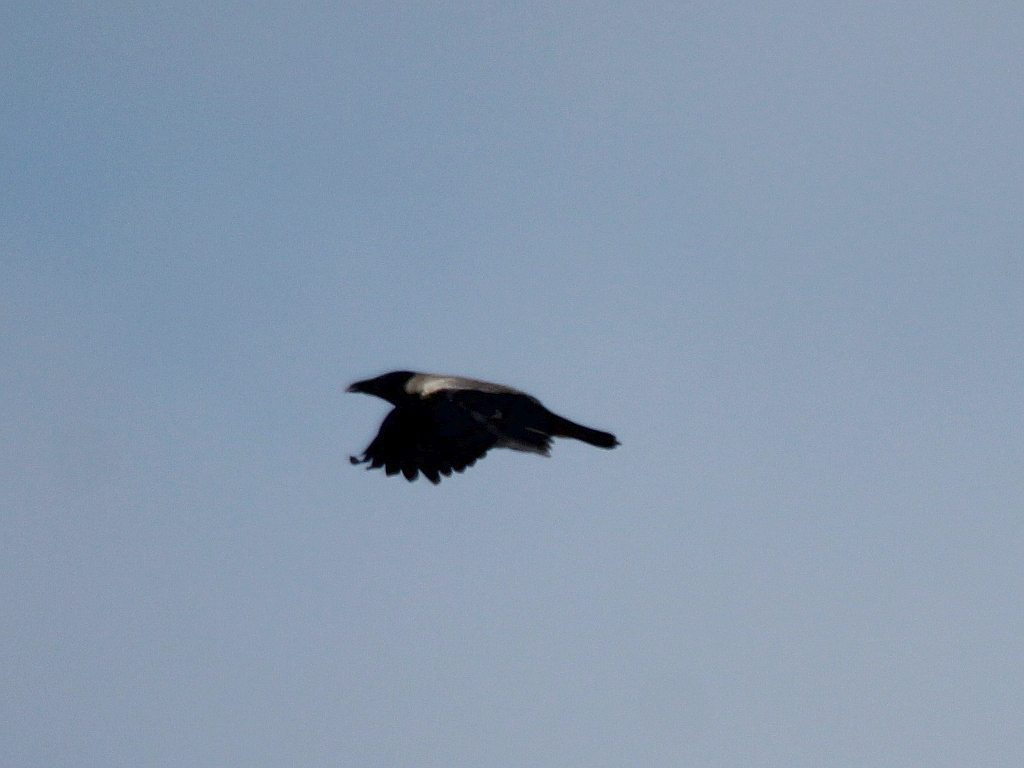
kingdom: Animalia
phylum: Chordata
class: Aves
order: Passeriformes
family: Corvidae
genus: Corvus
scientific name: Corvus cornix
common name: Hooded crow
